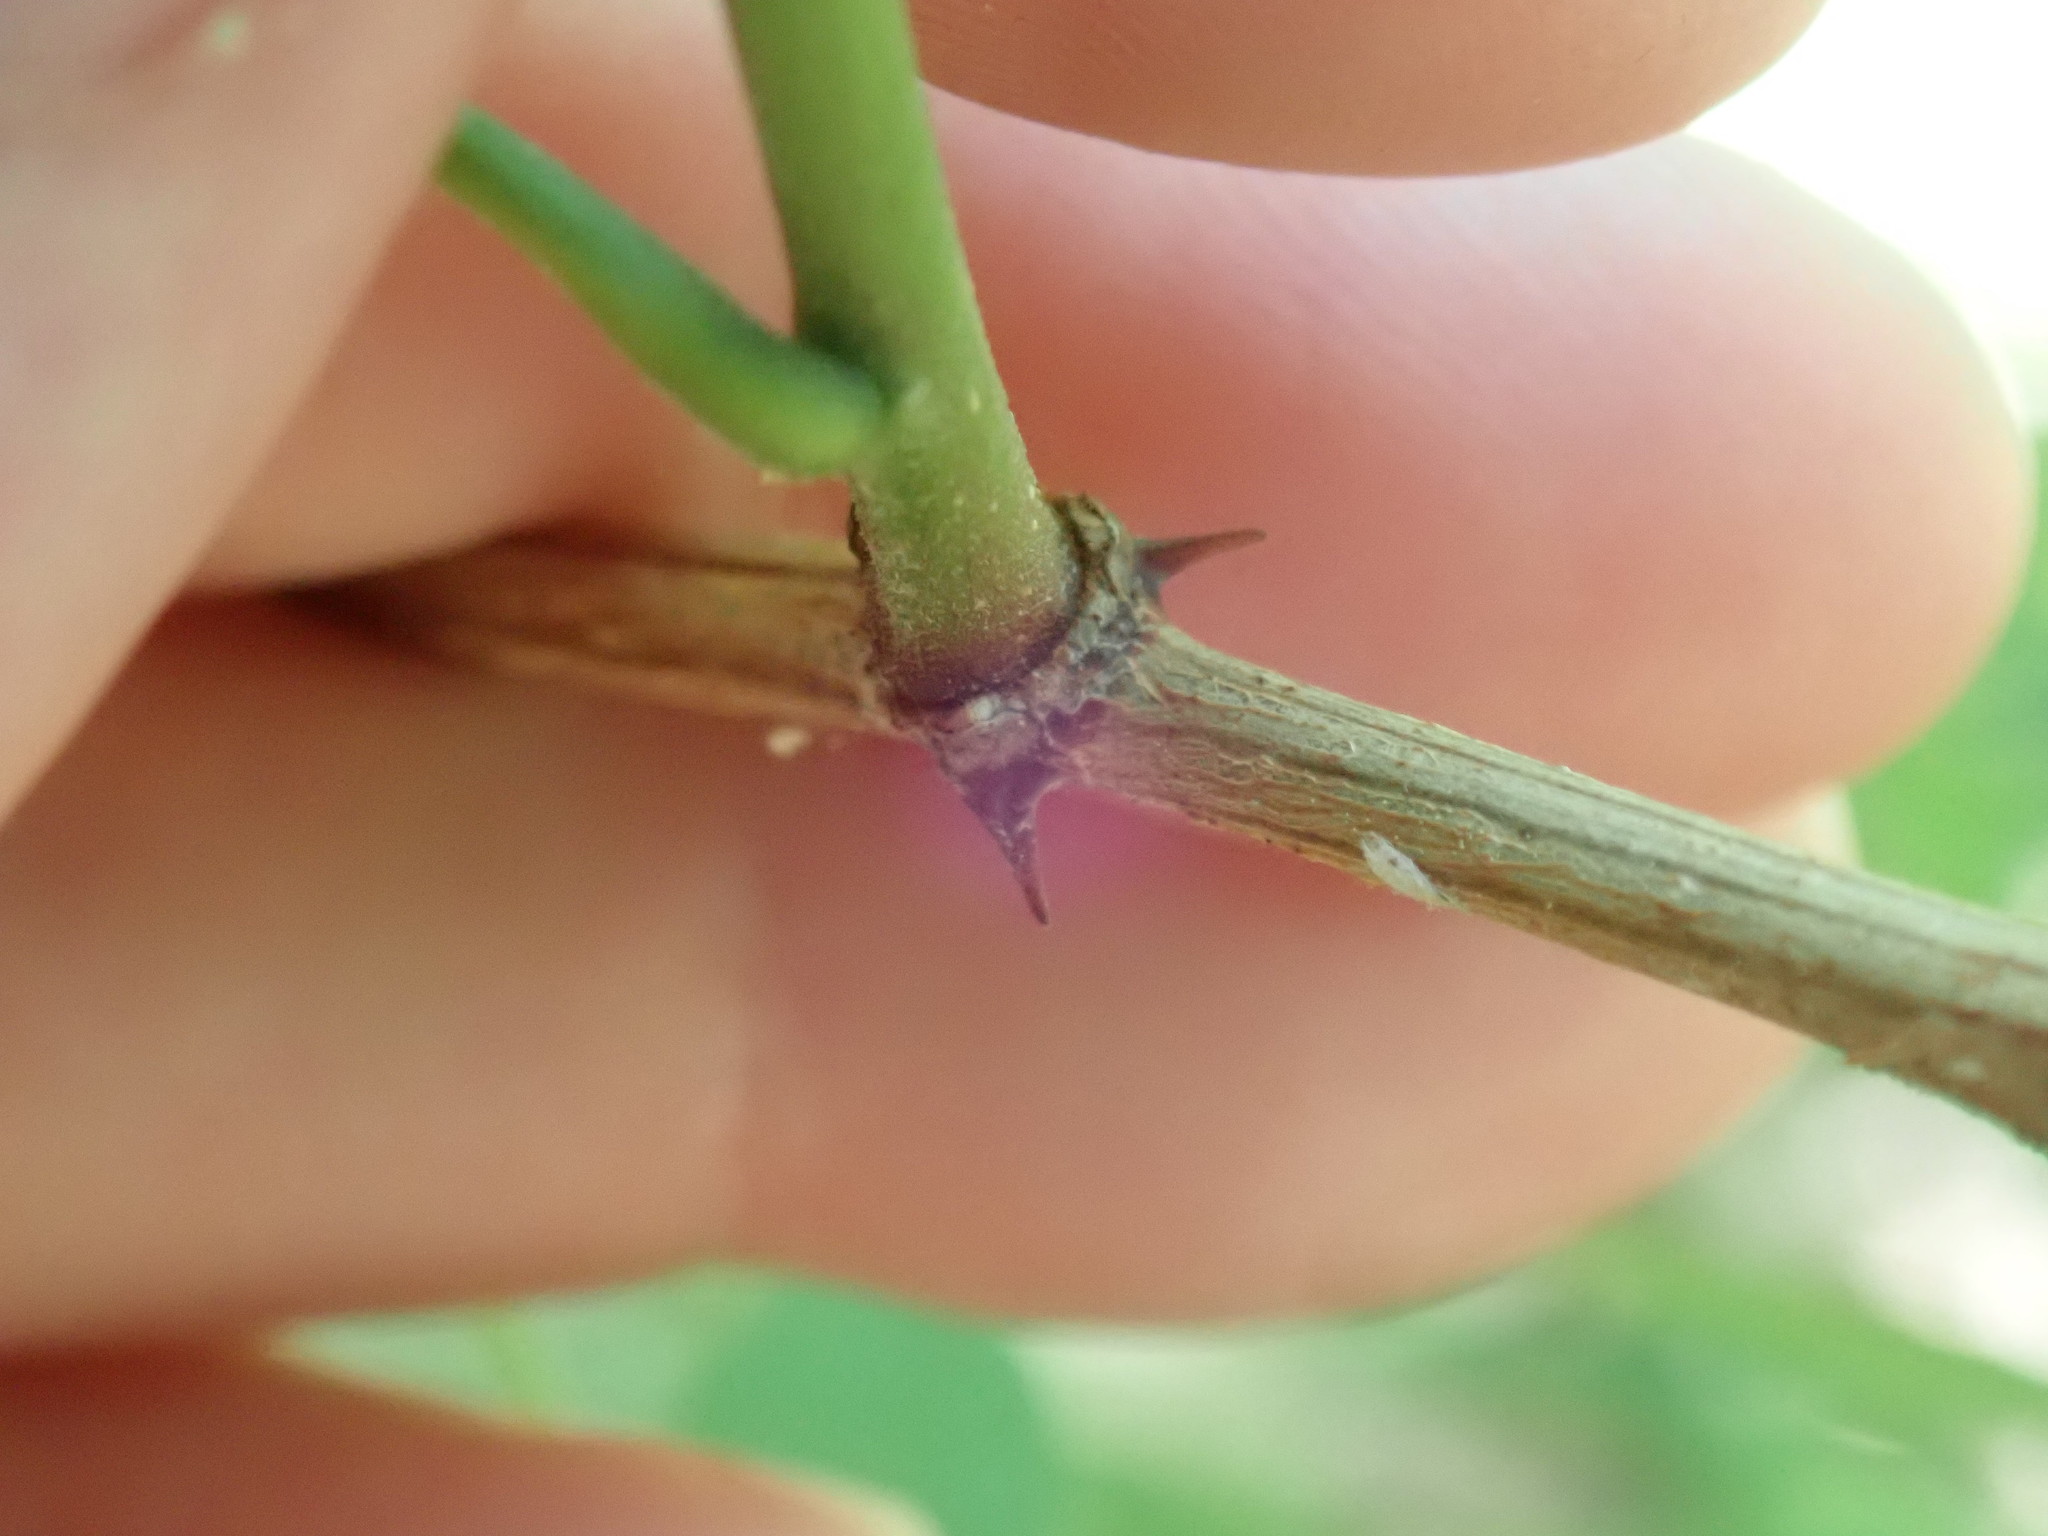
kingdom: Plantae
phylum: Tracheophyta
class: Magnoliopsida
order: Fabales
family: Fabaceae
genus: Robinia
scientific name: Robinia pseudoacacia
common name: Black locust
